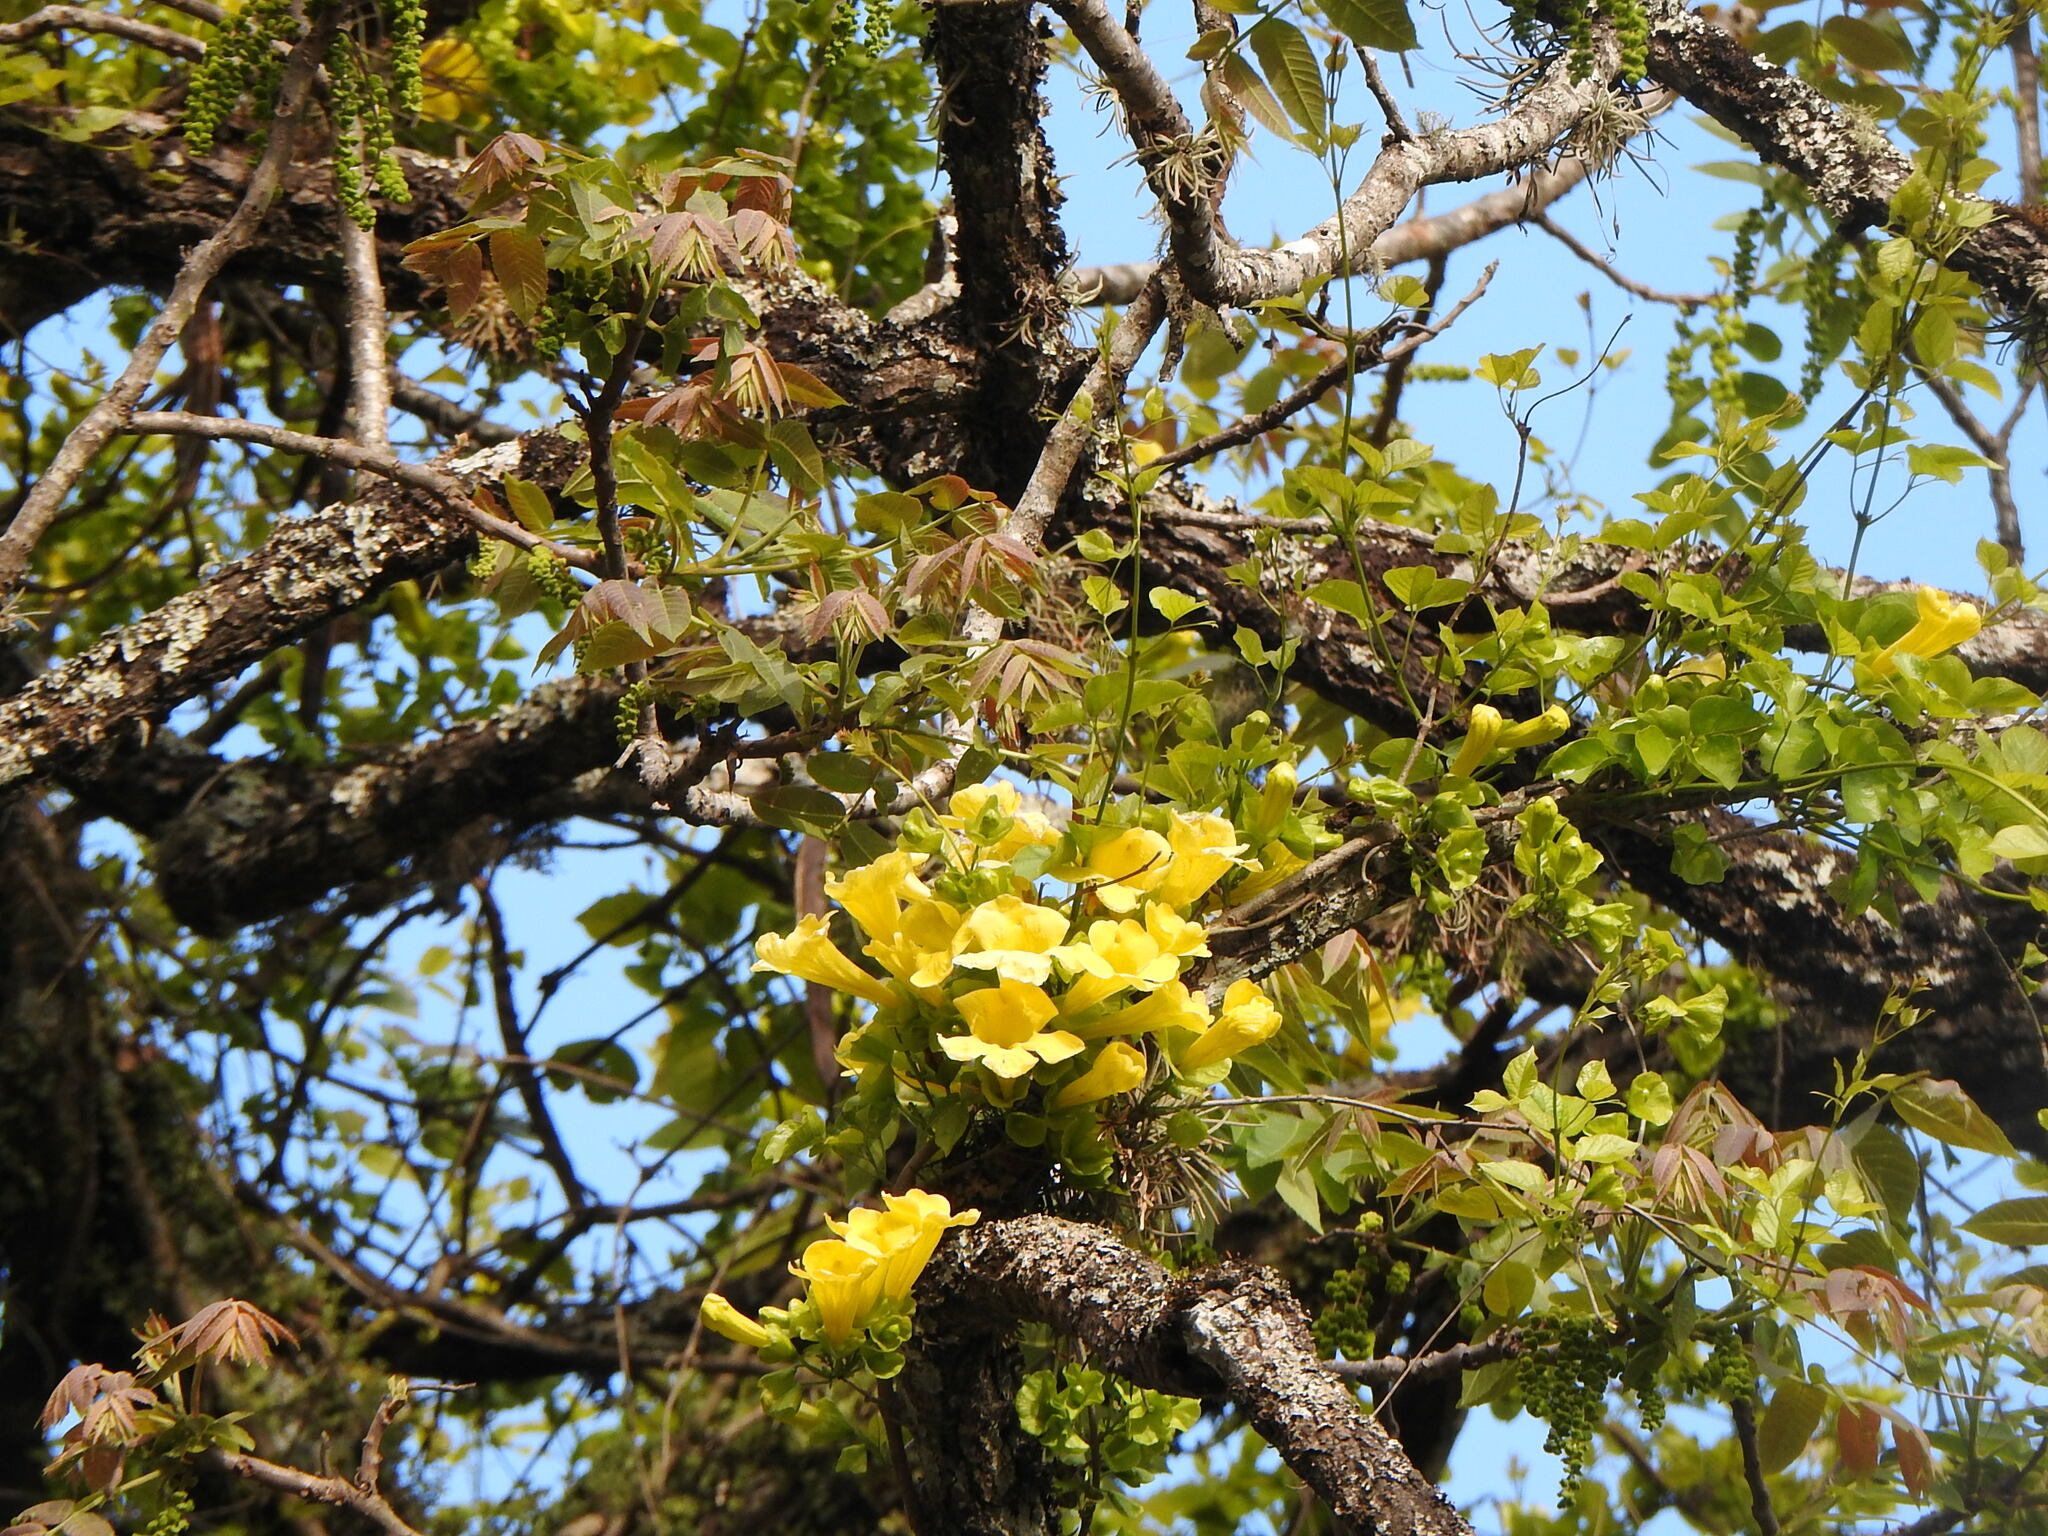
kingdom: Plantae
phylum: Tracheophyta
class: Magnoliopsida
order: Lamiales
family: Bignoniaceae
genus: Dolichandra
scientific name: Dolichandra unguis-cati
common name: Catclaw vine
